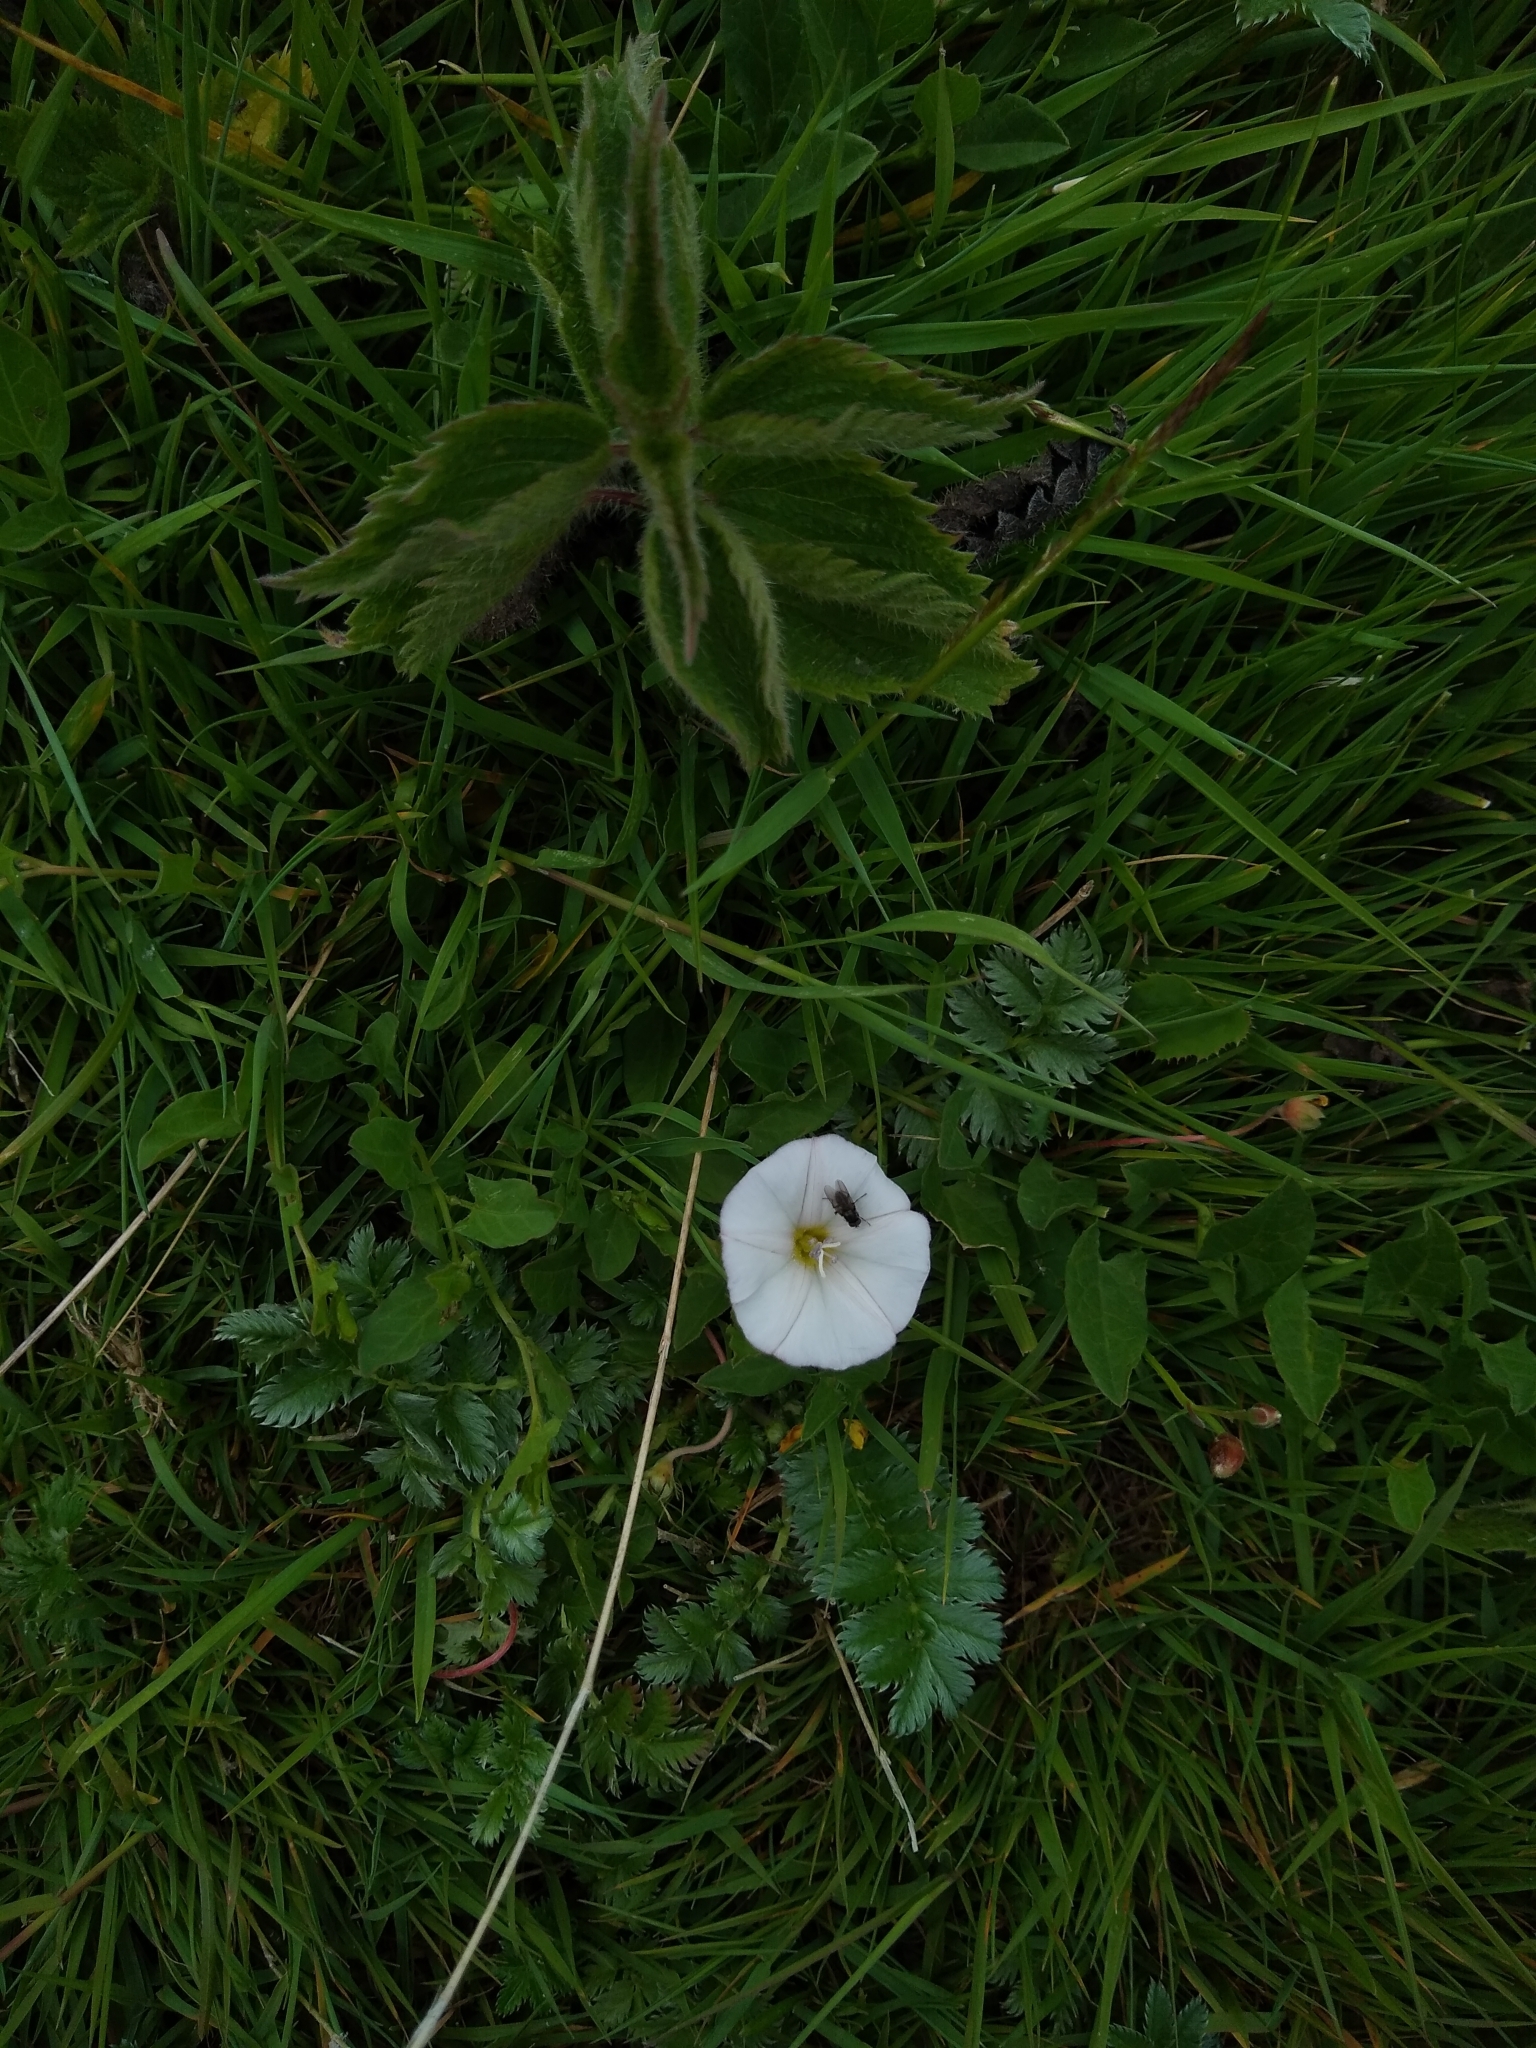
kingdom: Plantae
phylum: Tracheophyta
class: Magnoliopsida
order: Solanales
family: Convolvulaceae
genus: Convolvulus
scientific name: Convolvulus arvensis
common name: Field bindweed
